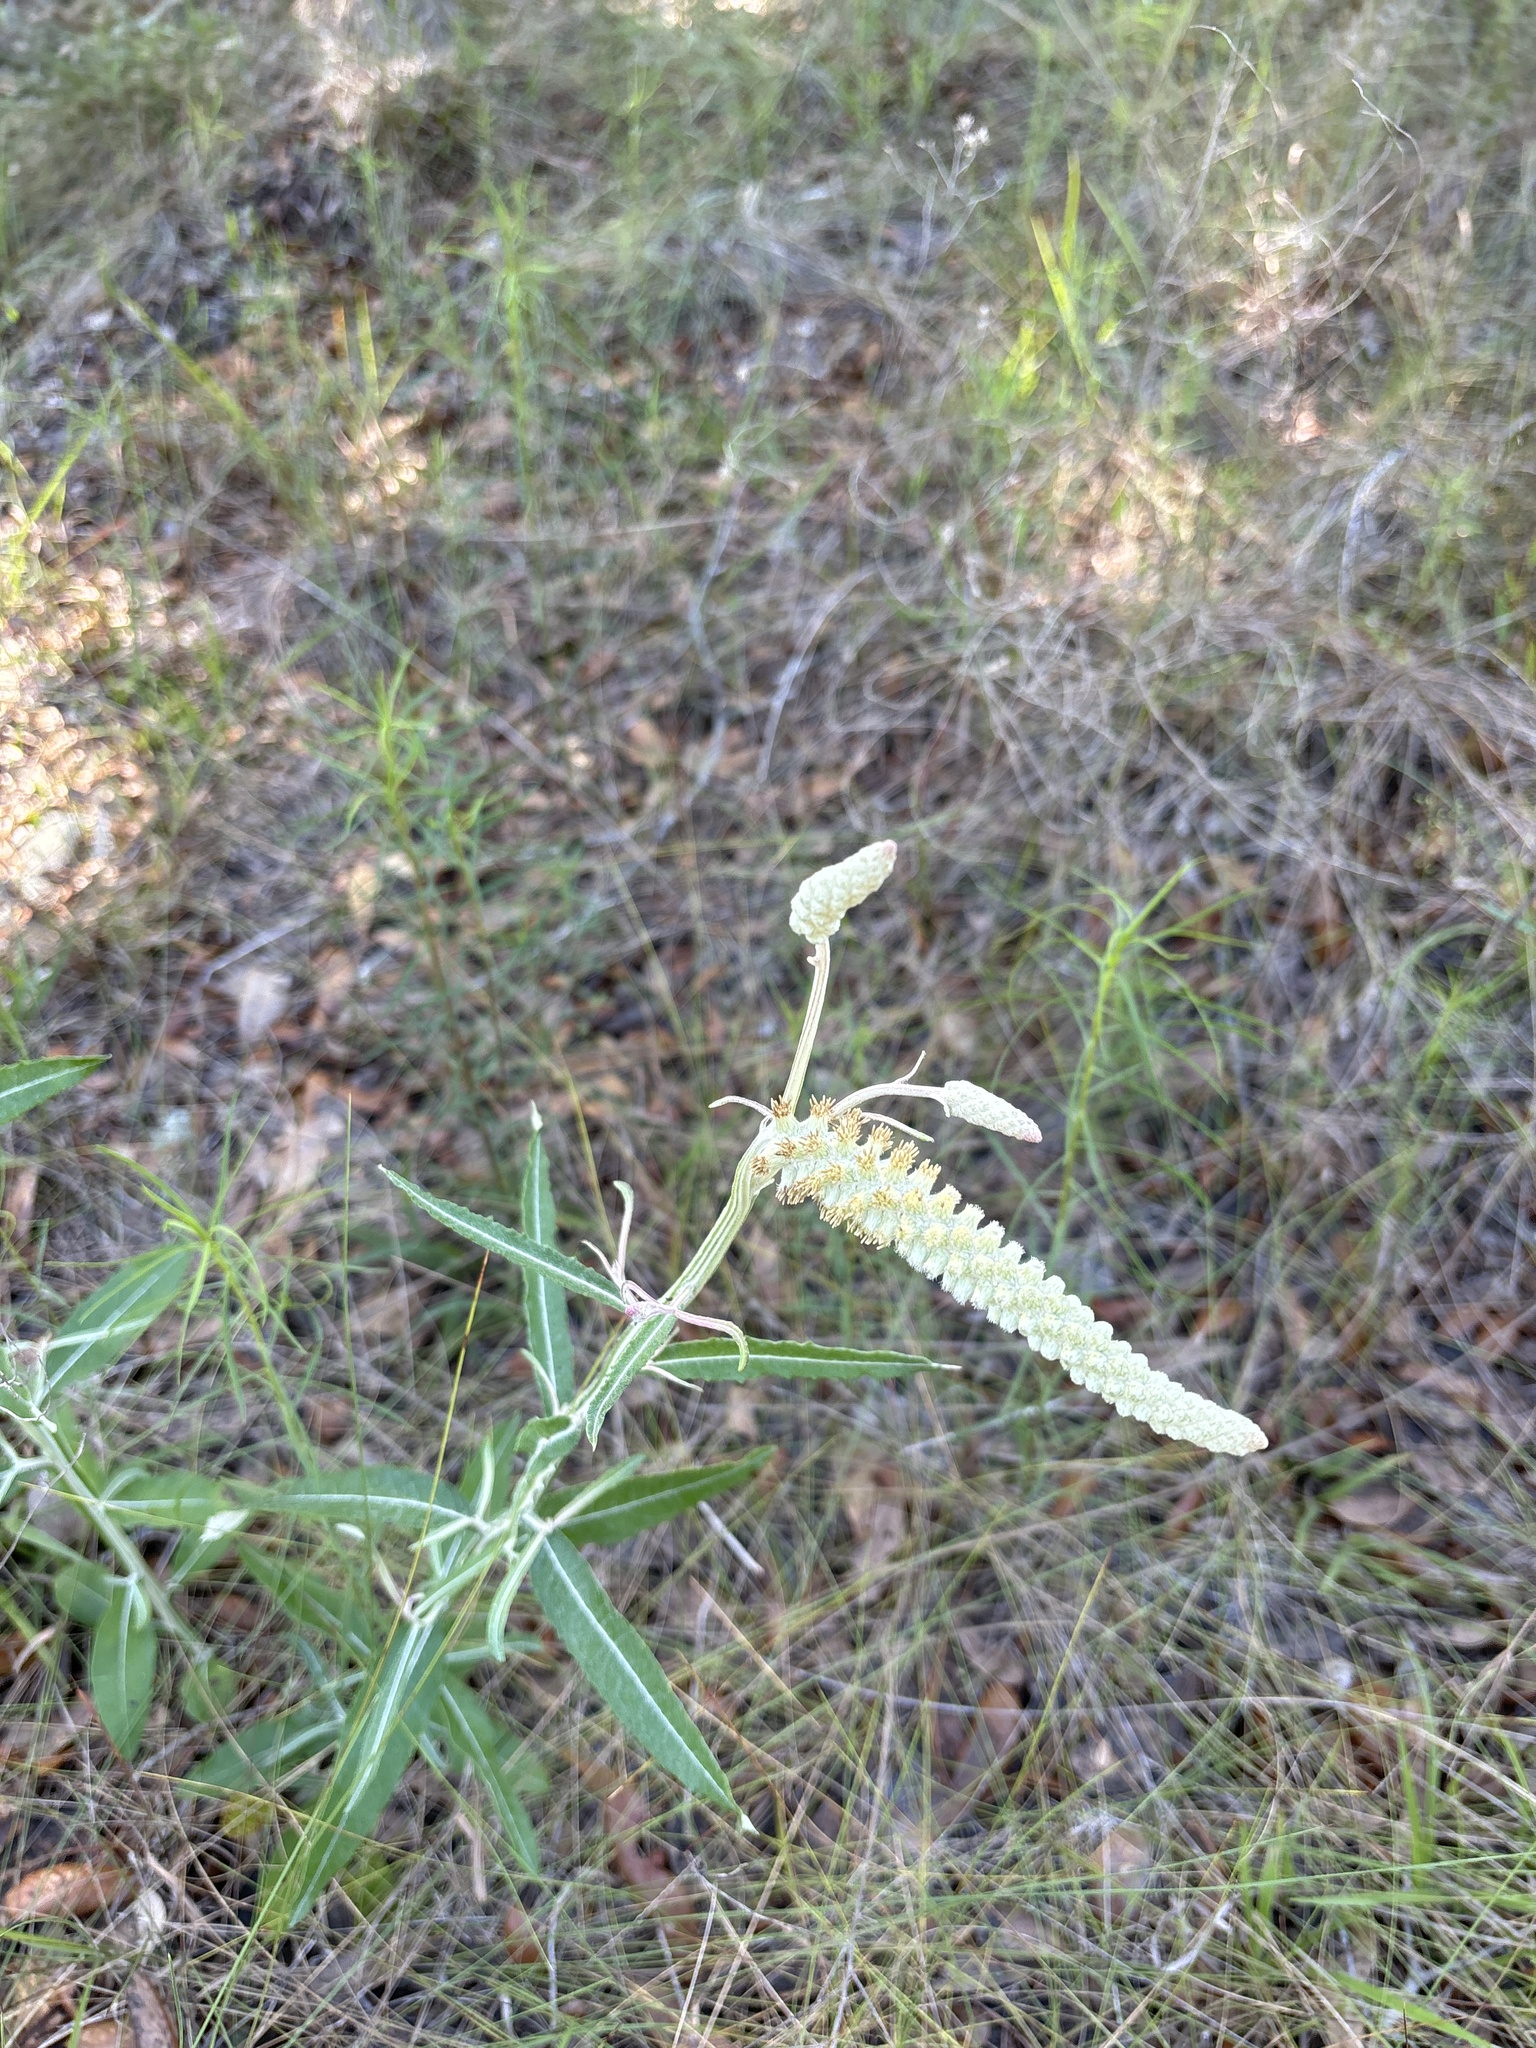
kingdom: Plantae
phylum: Tracheophyta
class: Magnoliopsida
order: Asterales
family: Asteraceae
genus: Pterocaulon
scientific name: Pterocaulon pycnostachyum
